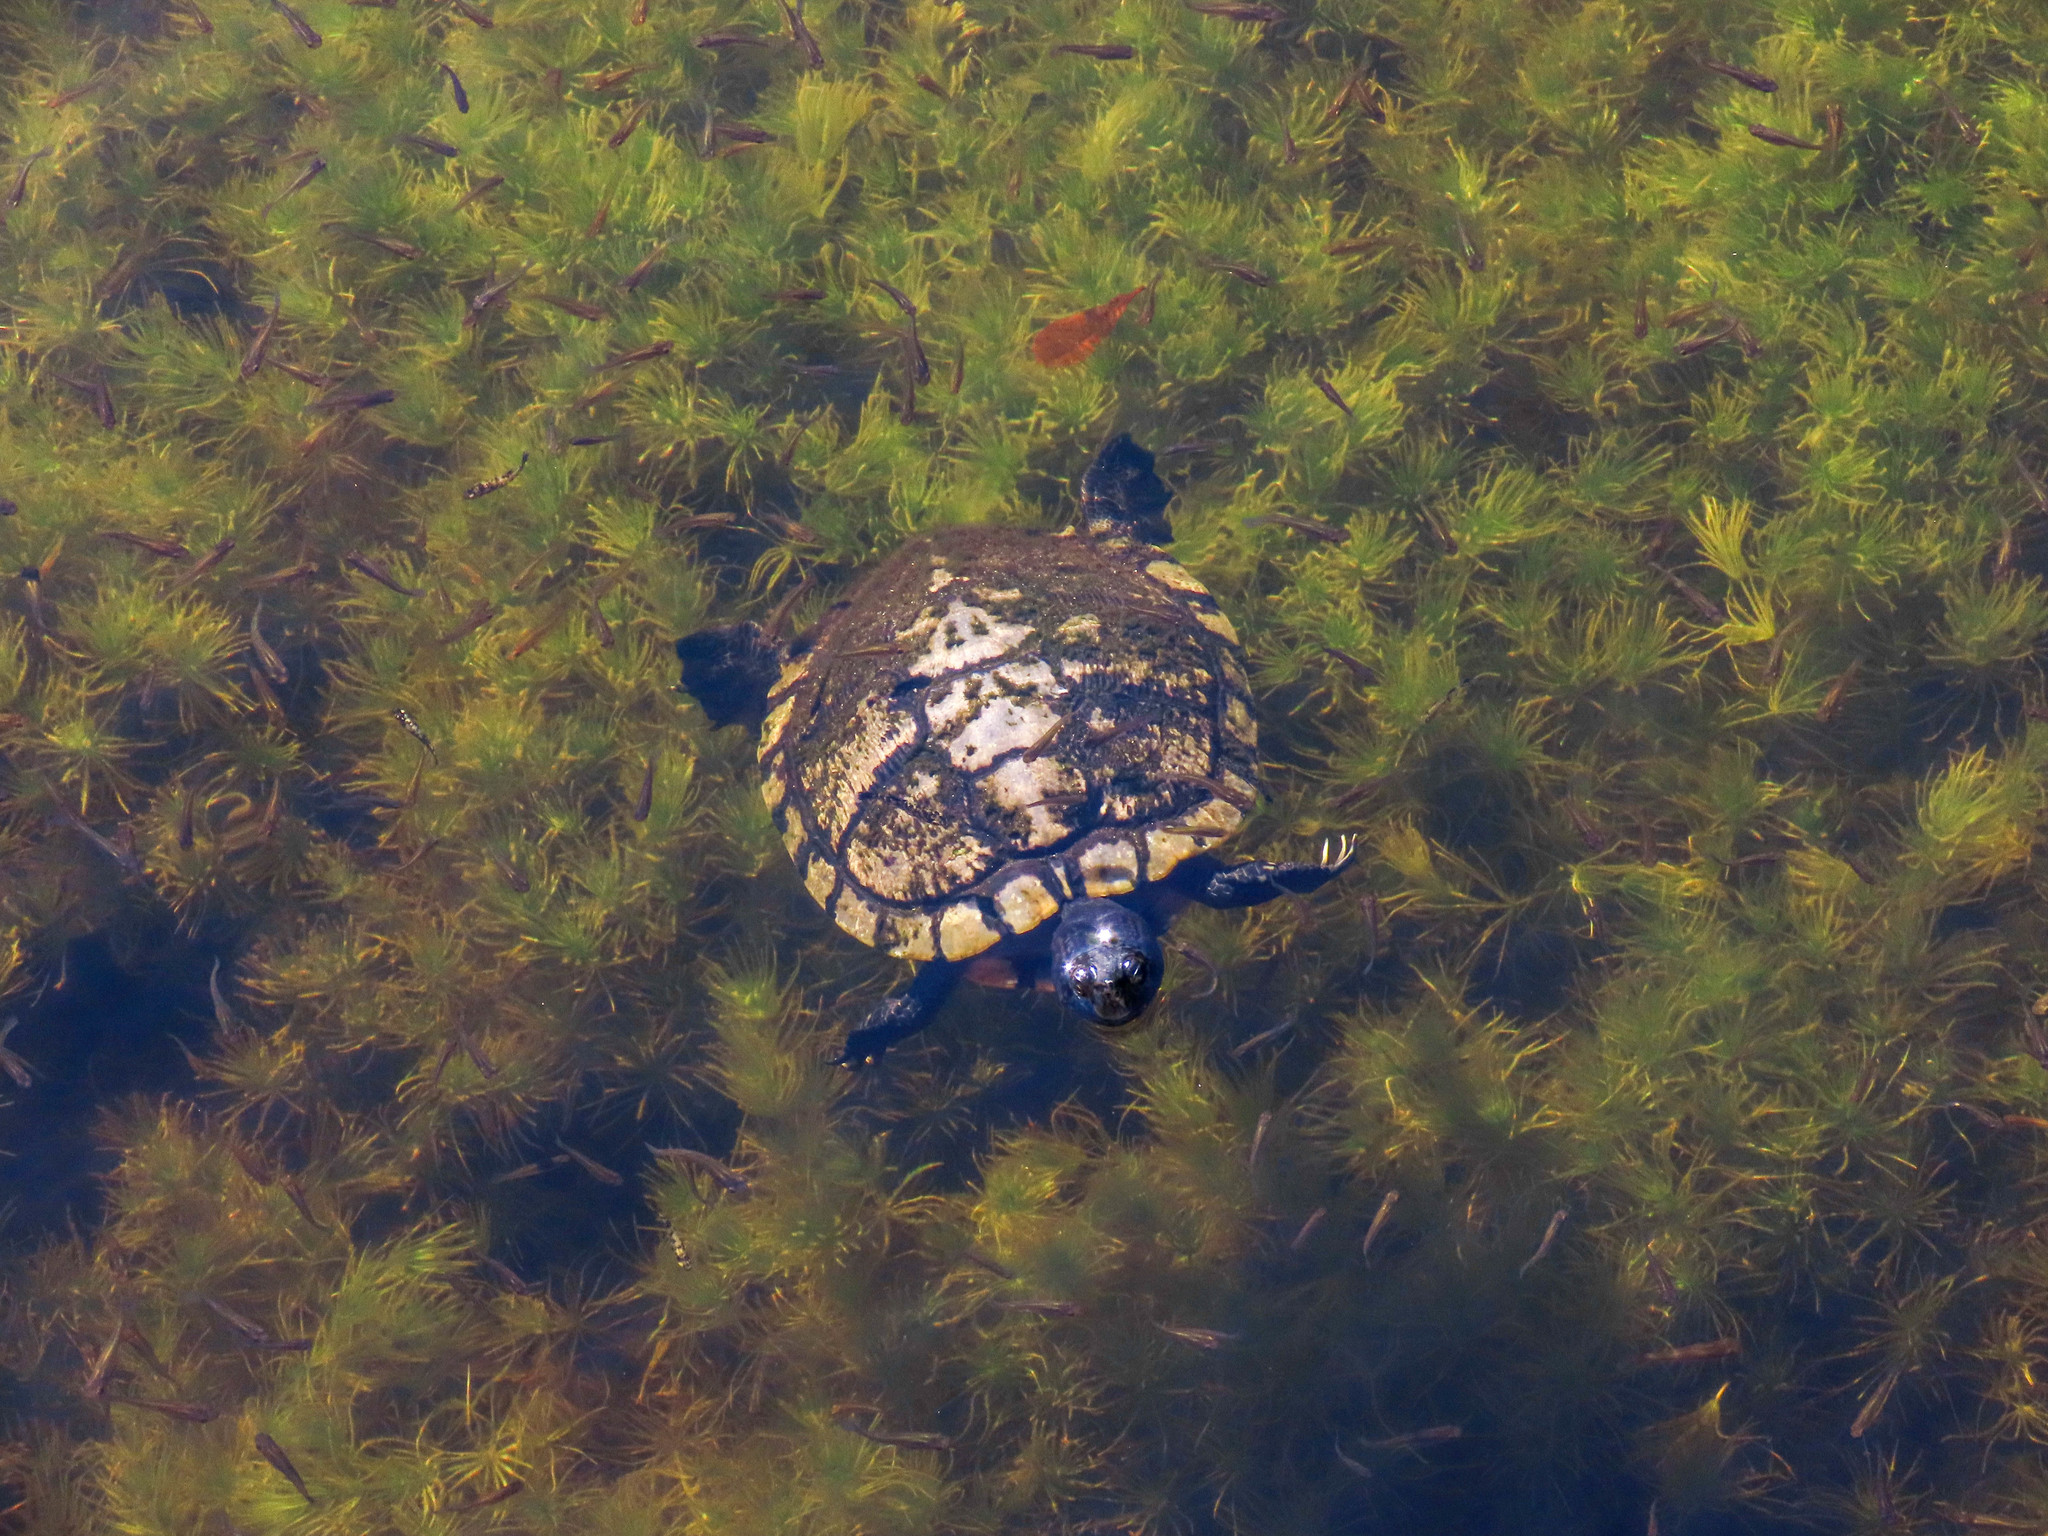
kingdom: Animalia
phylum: Chordata
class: Testudines
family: Emydidae
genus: Trachemys
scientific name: Trachemys scripta
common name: Slider
